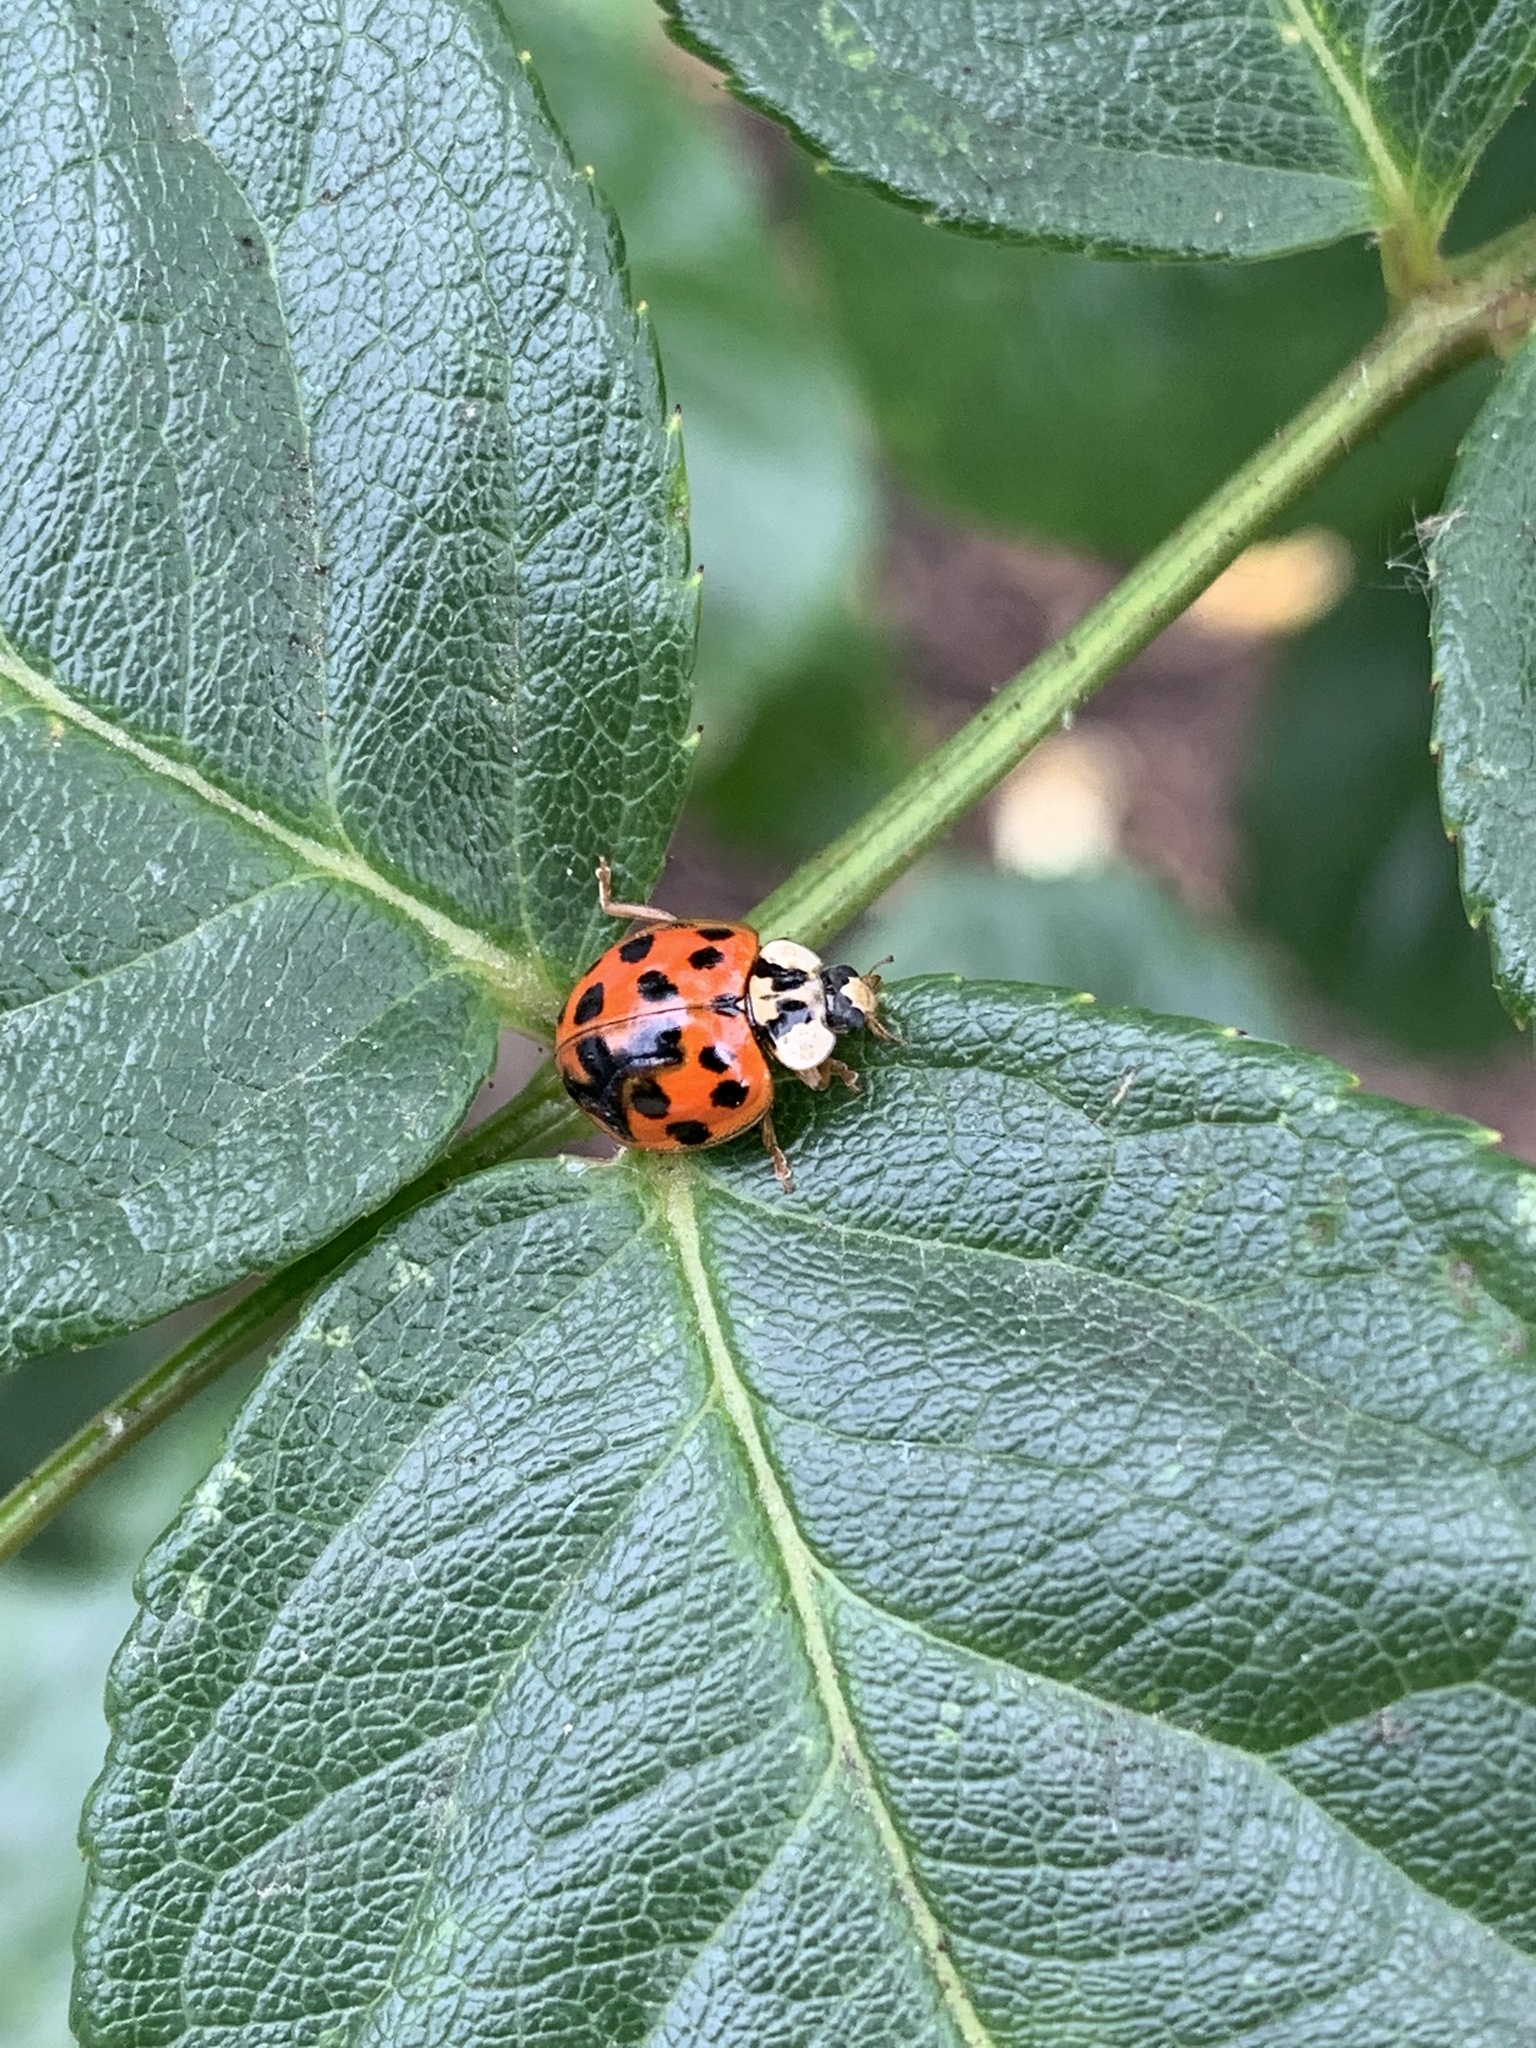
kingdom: Animalia
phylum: Arthropoda
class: Insecta
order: Coleoptera
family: Coccinellidae
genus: Harmonia
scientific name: Harmonia axyridis
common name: Harlequin ladybird
